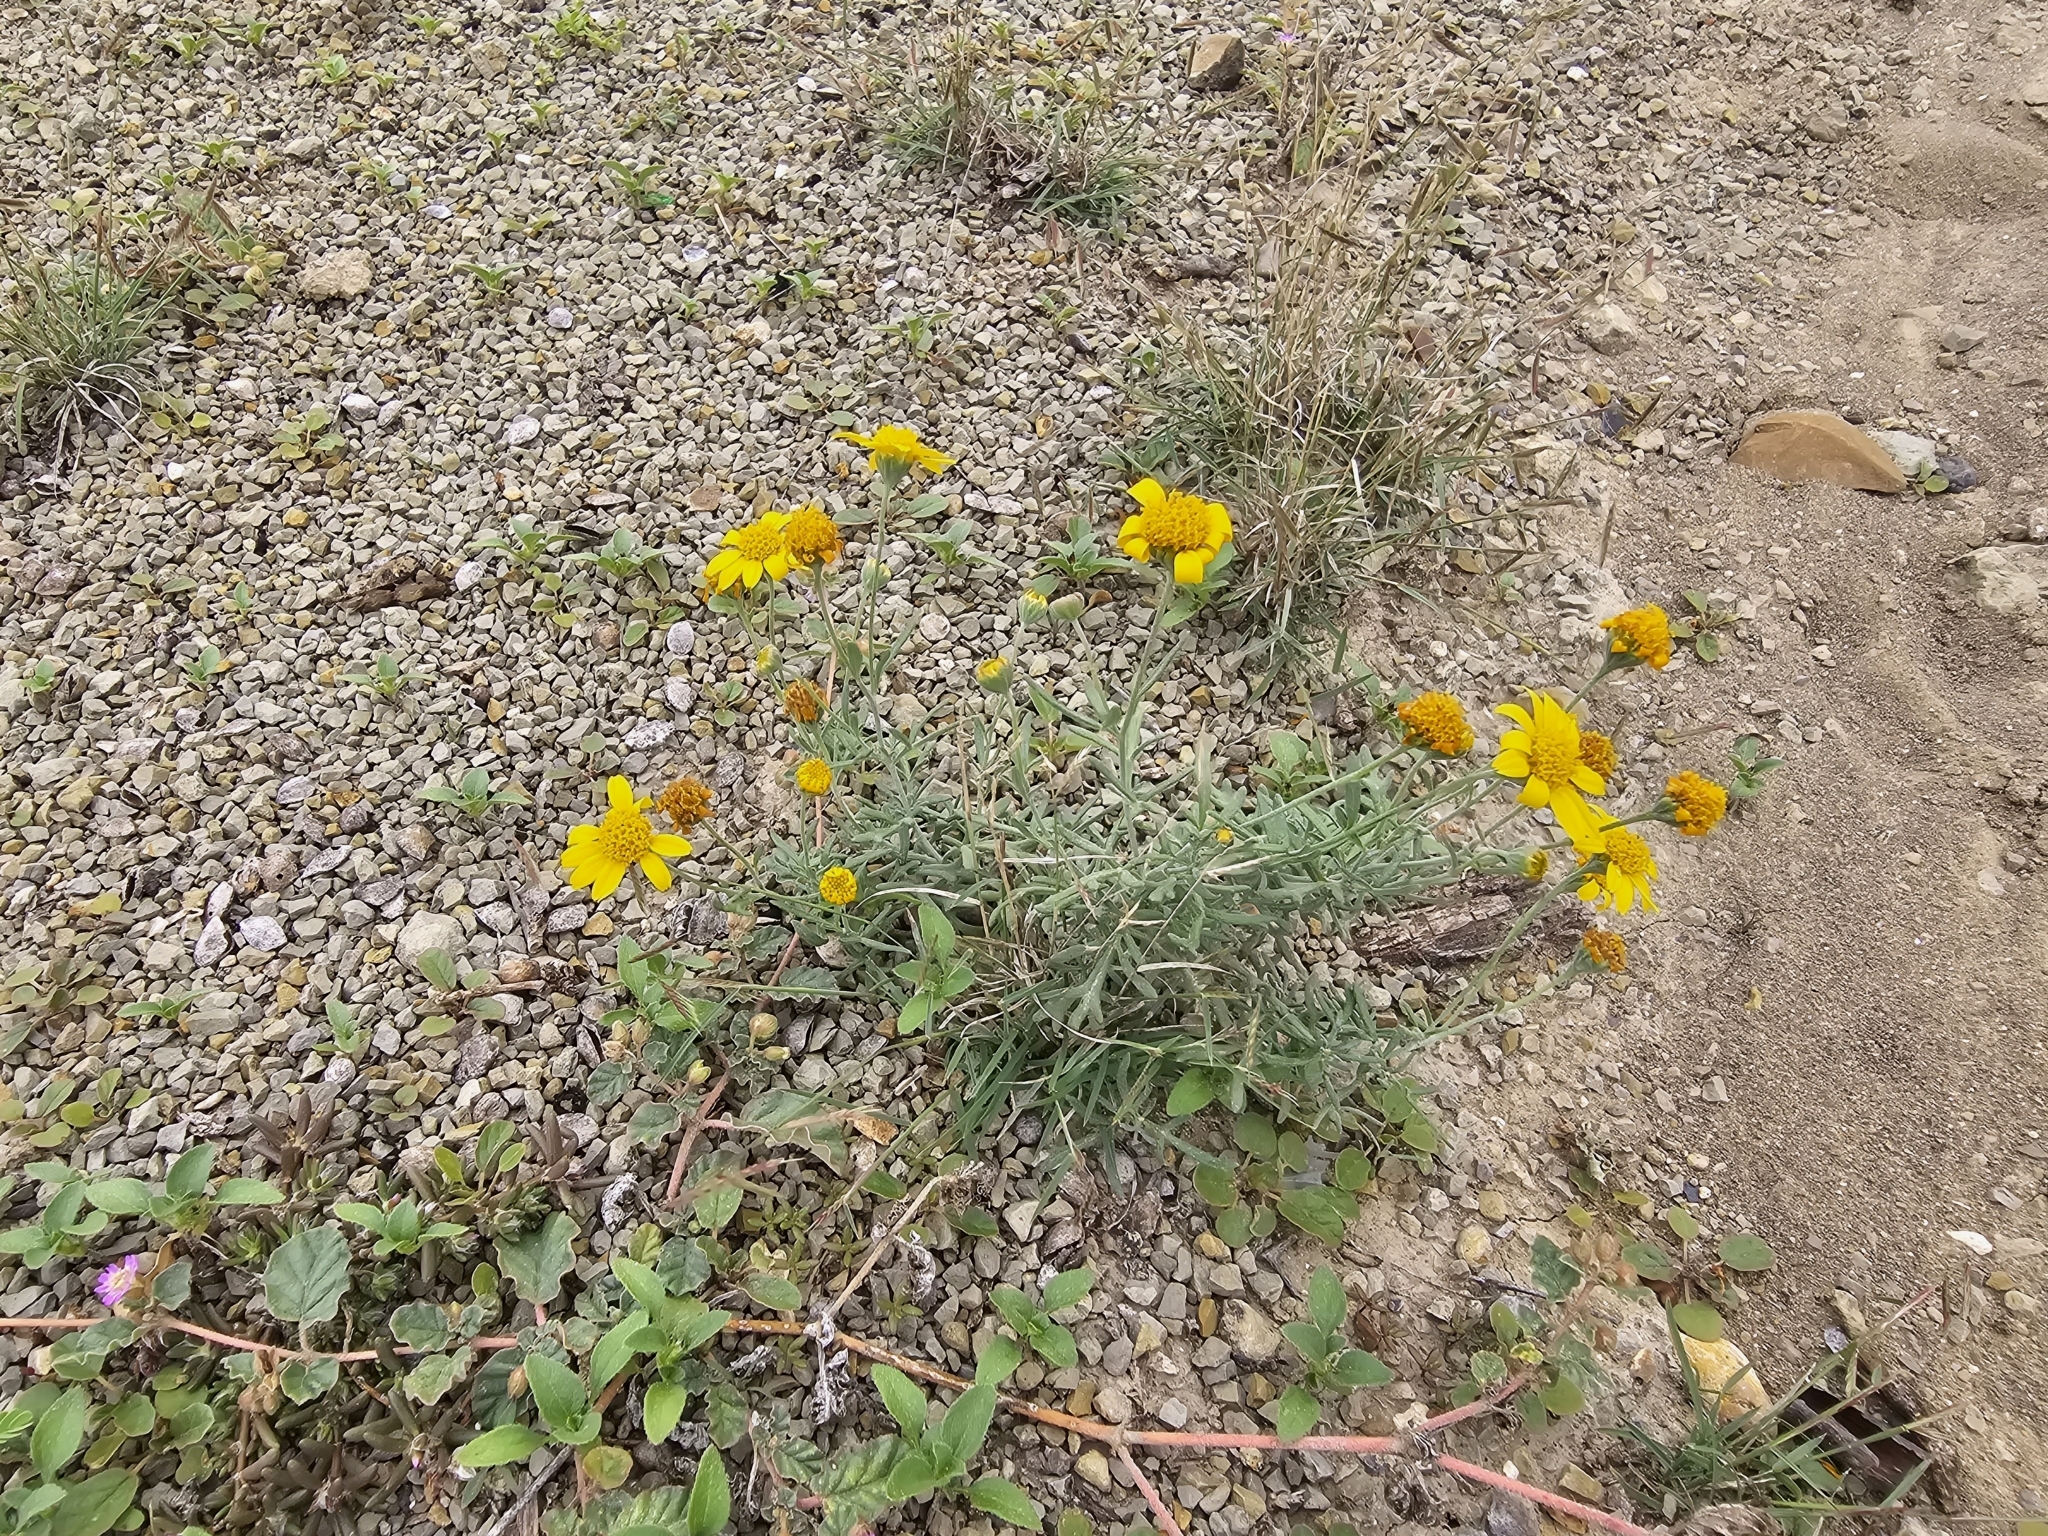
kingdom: Plantae
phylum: Tracheophyta
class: Magnoliopsida
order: Asterales
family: Asteraceae
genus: Picradeniopsis
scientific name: Picradeniopsis absinthifolia
